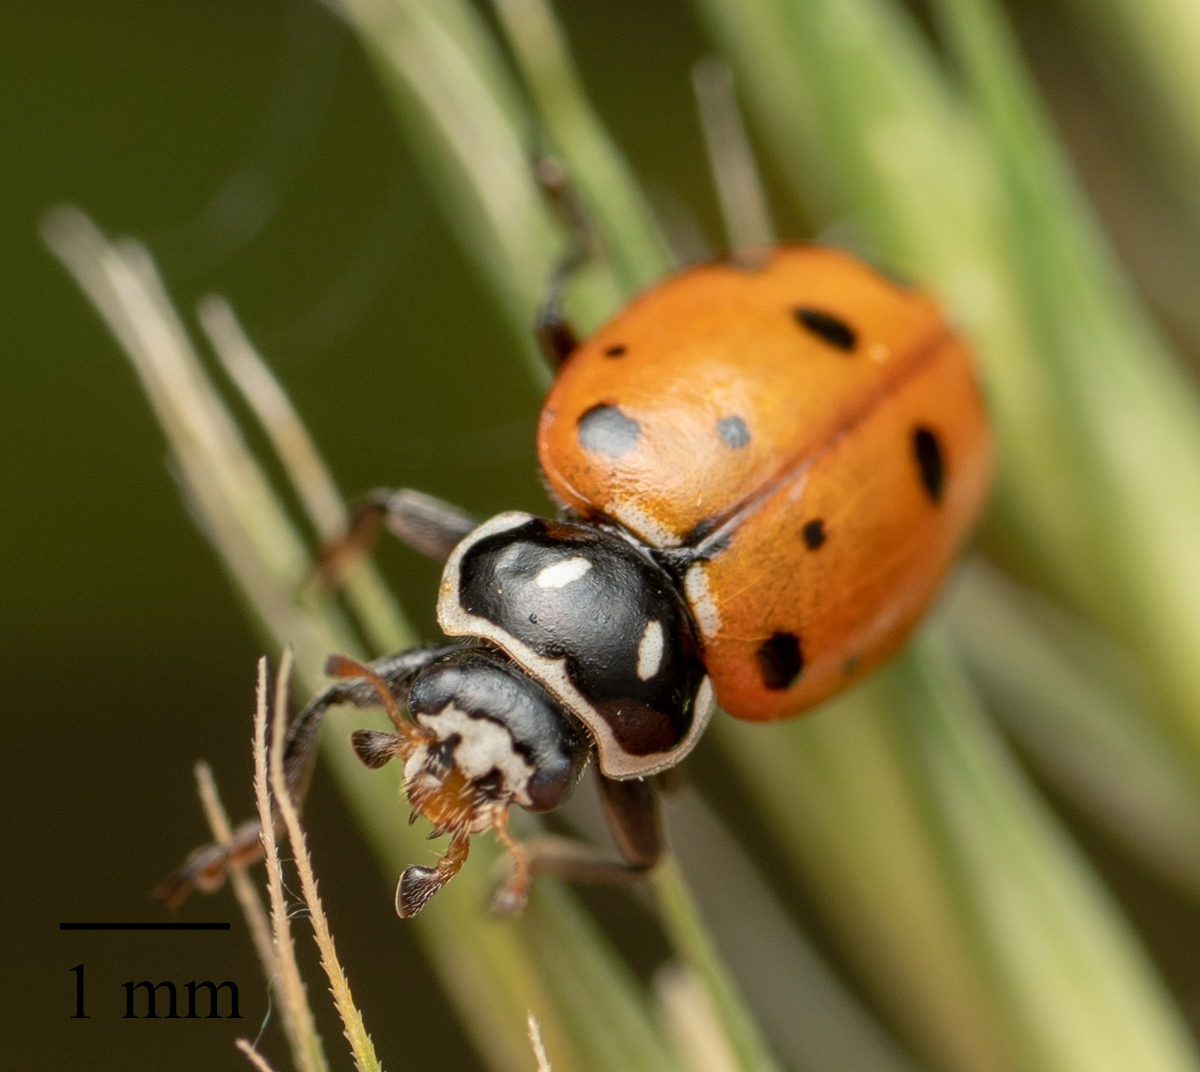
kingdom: Animalia
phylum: Arthropoda
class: Insecta
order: Coleoptera
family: Coccinellidae
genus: Hippodamia
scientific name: Hippodamia convergens
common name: Convergent lady beetle
